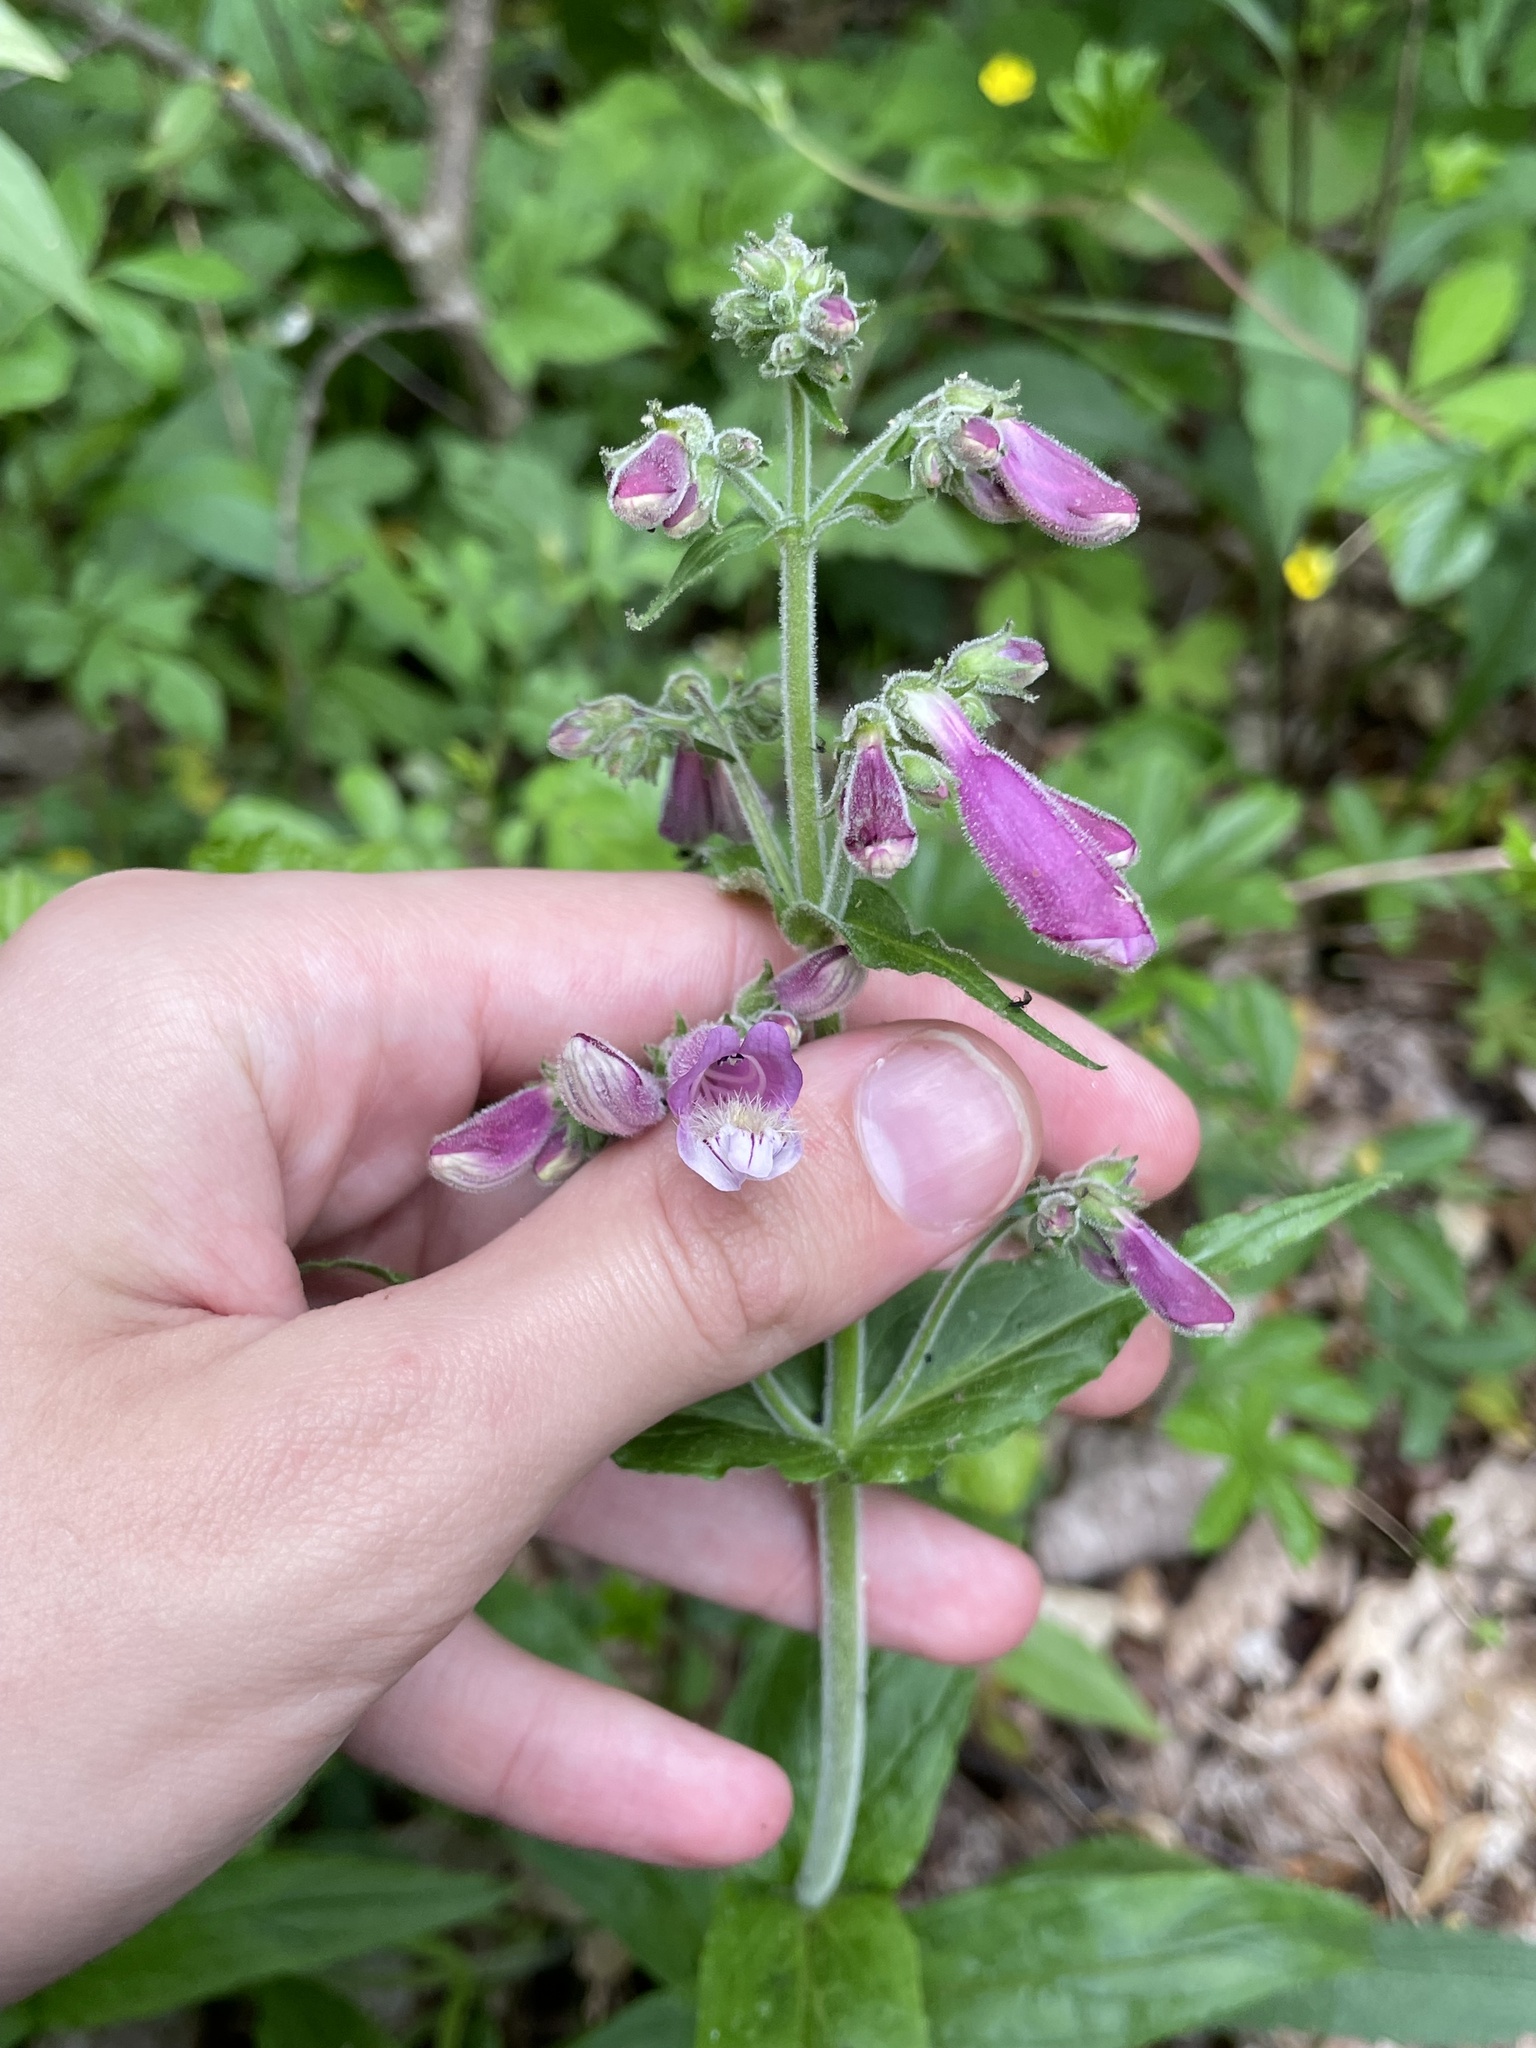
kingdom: Plantae
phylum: Tracheophyta
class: Magnoliopsida
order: Lamiales
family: Plantaginaceae
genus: Penstemon
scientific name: Penstemon smallii
